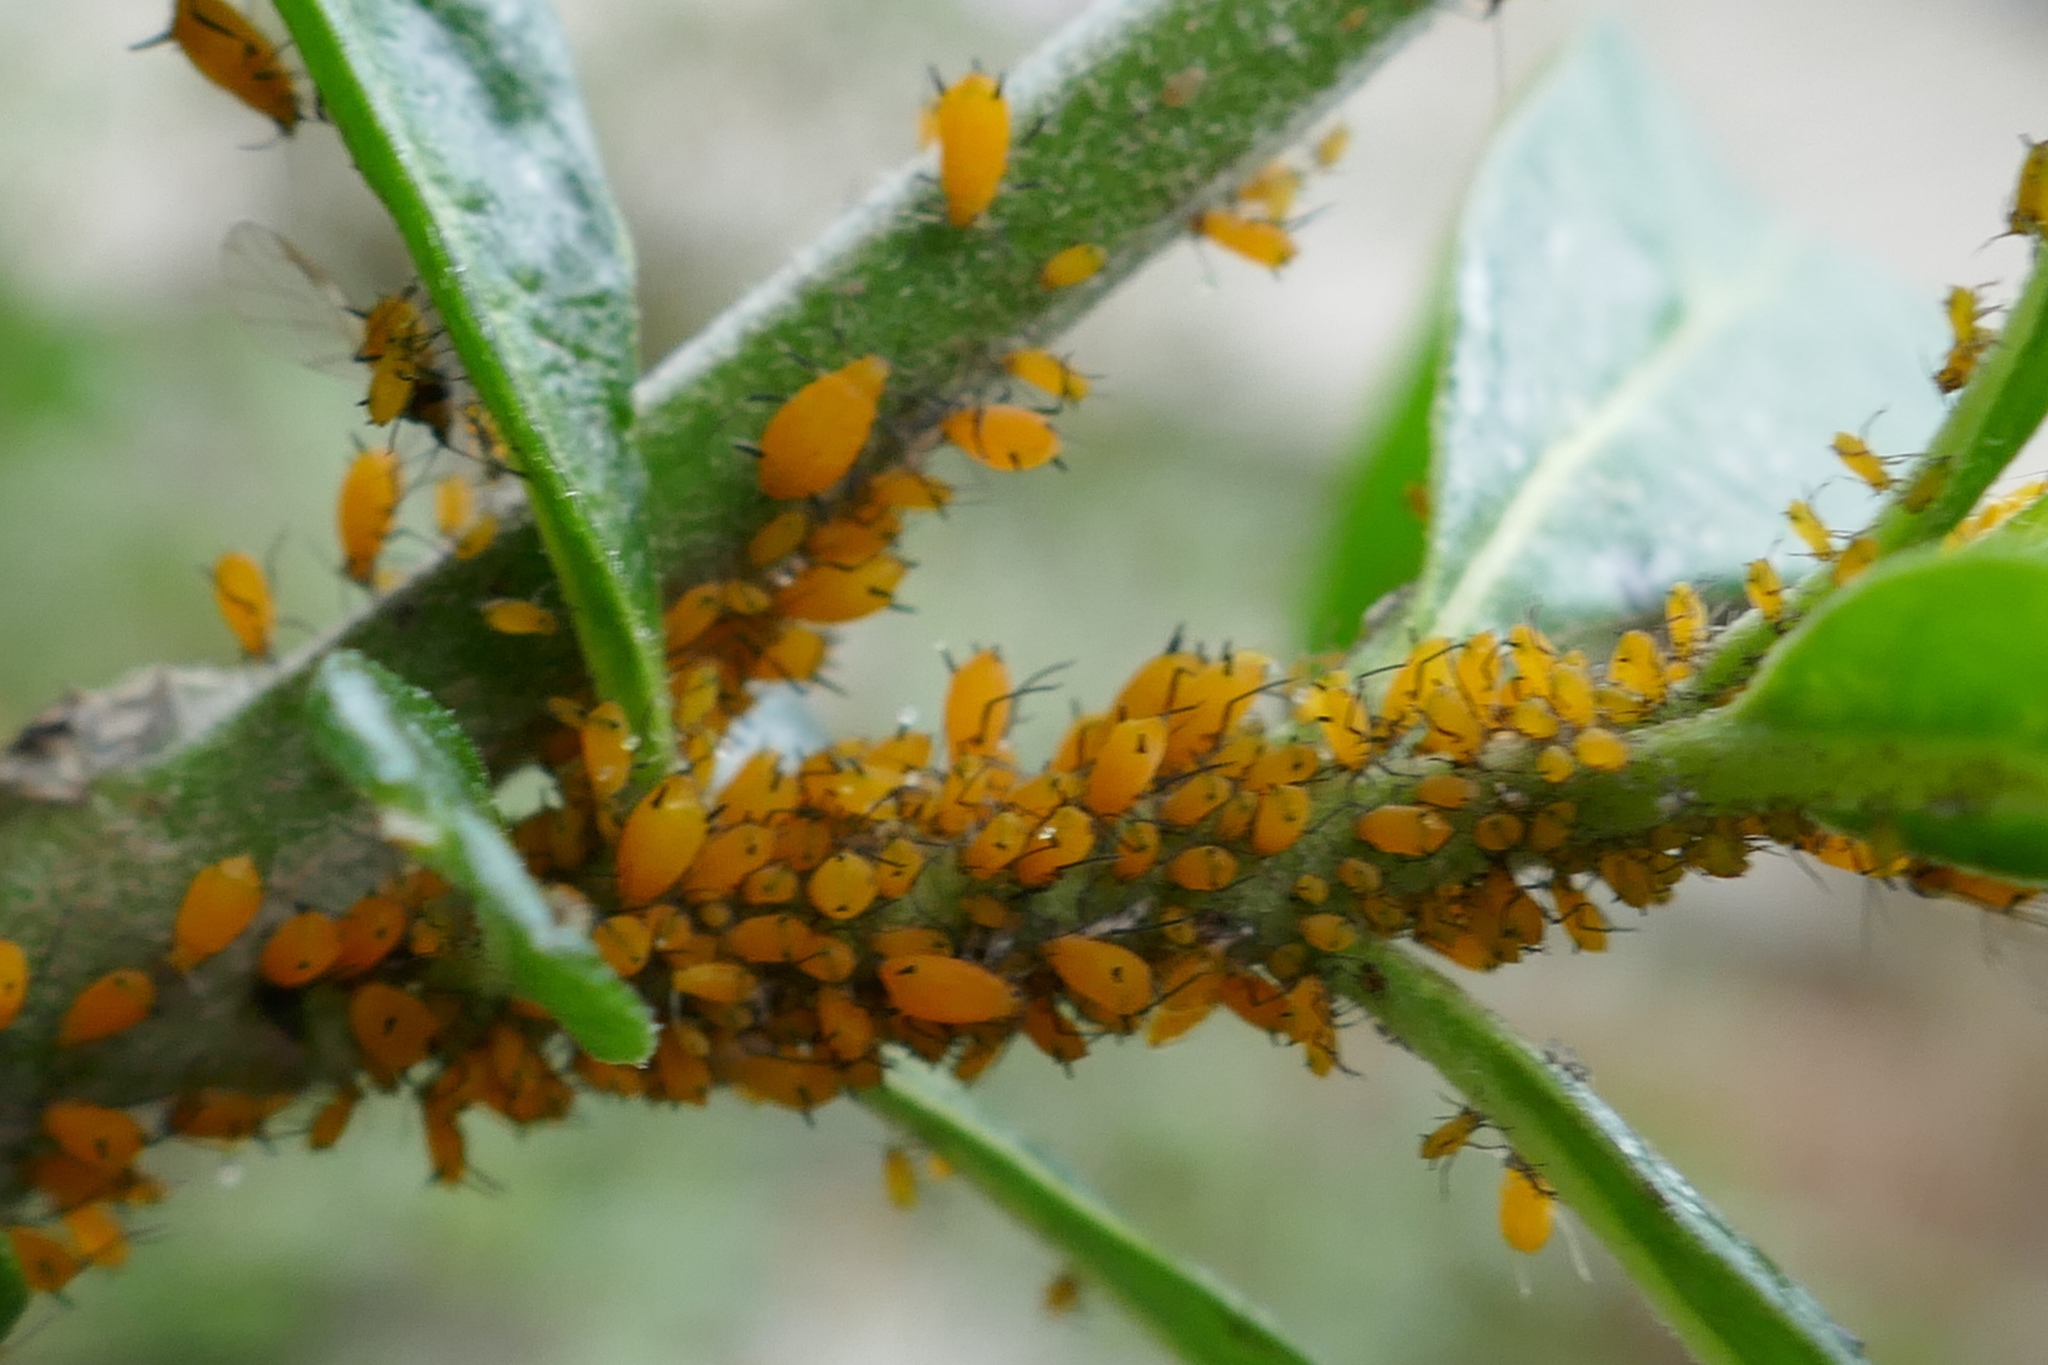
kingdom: Animalia
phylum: Arthropoda
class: Insecta
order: Hemiptera
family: Aphididae
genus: Aphis
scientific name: Aphis nerii
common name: Oleander aphid
